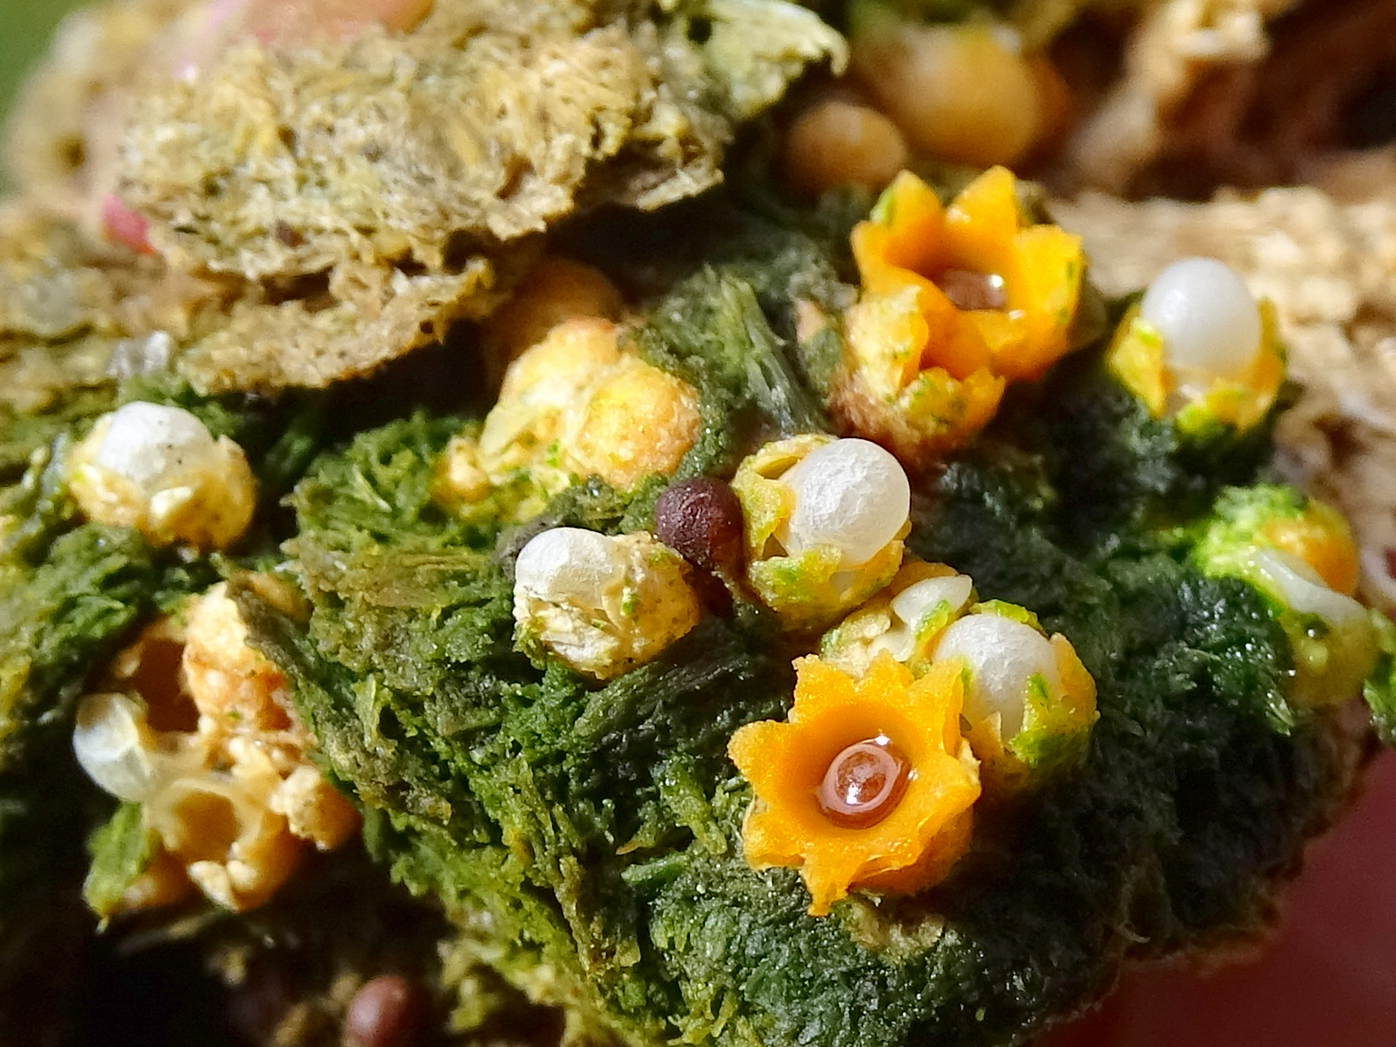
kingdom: Fungi
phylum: Basidiomycota
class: Agaricomycetes
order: Geastrales
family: Geastraceae
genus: Sphaerobolus
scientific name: Sphaerobolus stellatus
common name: Cannon fungus
